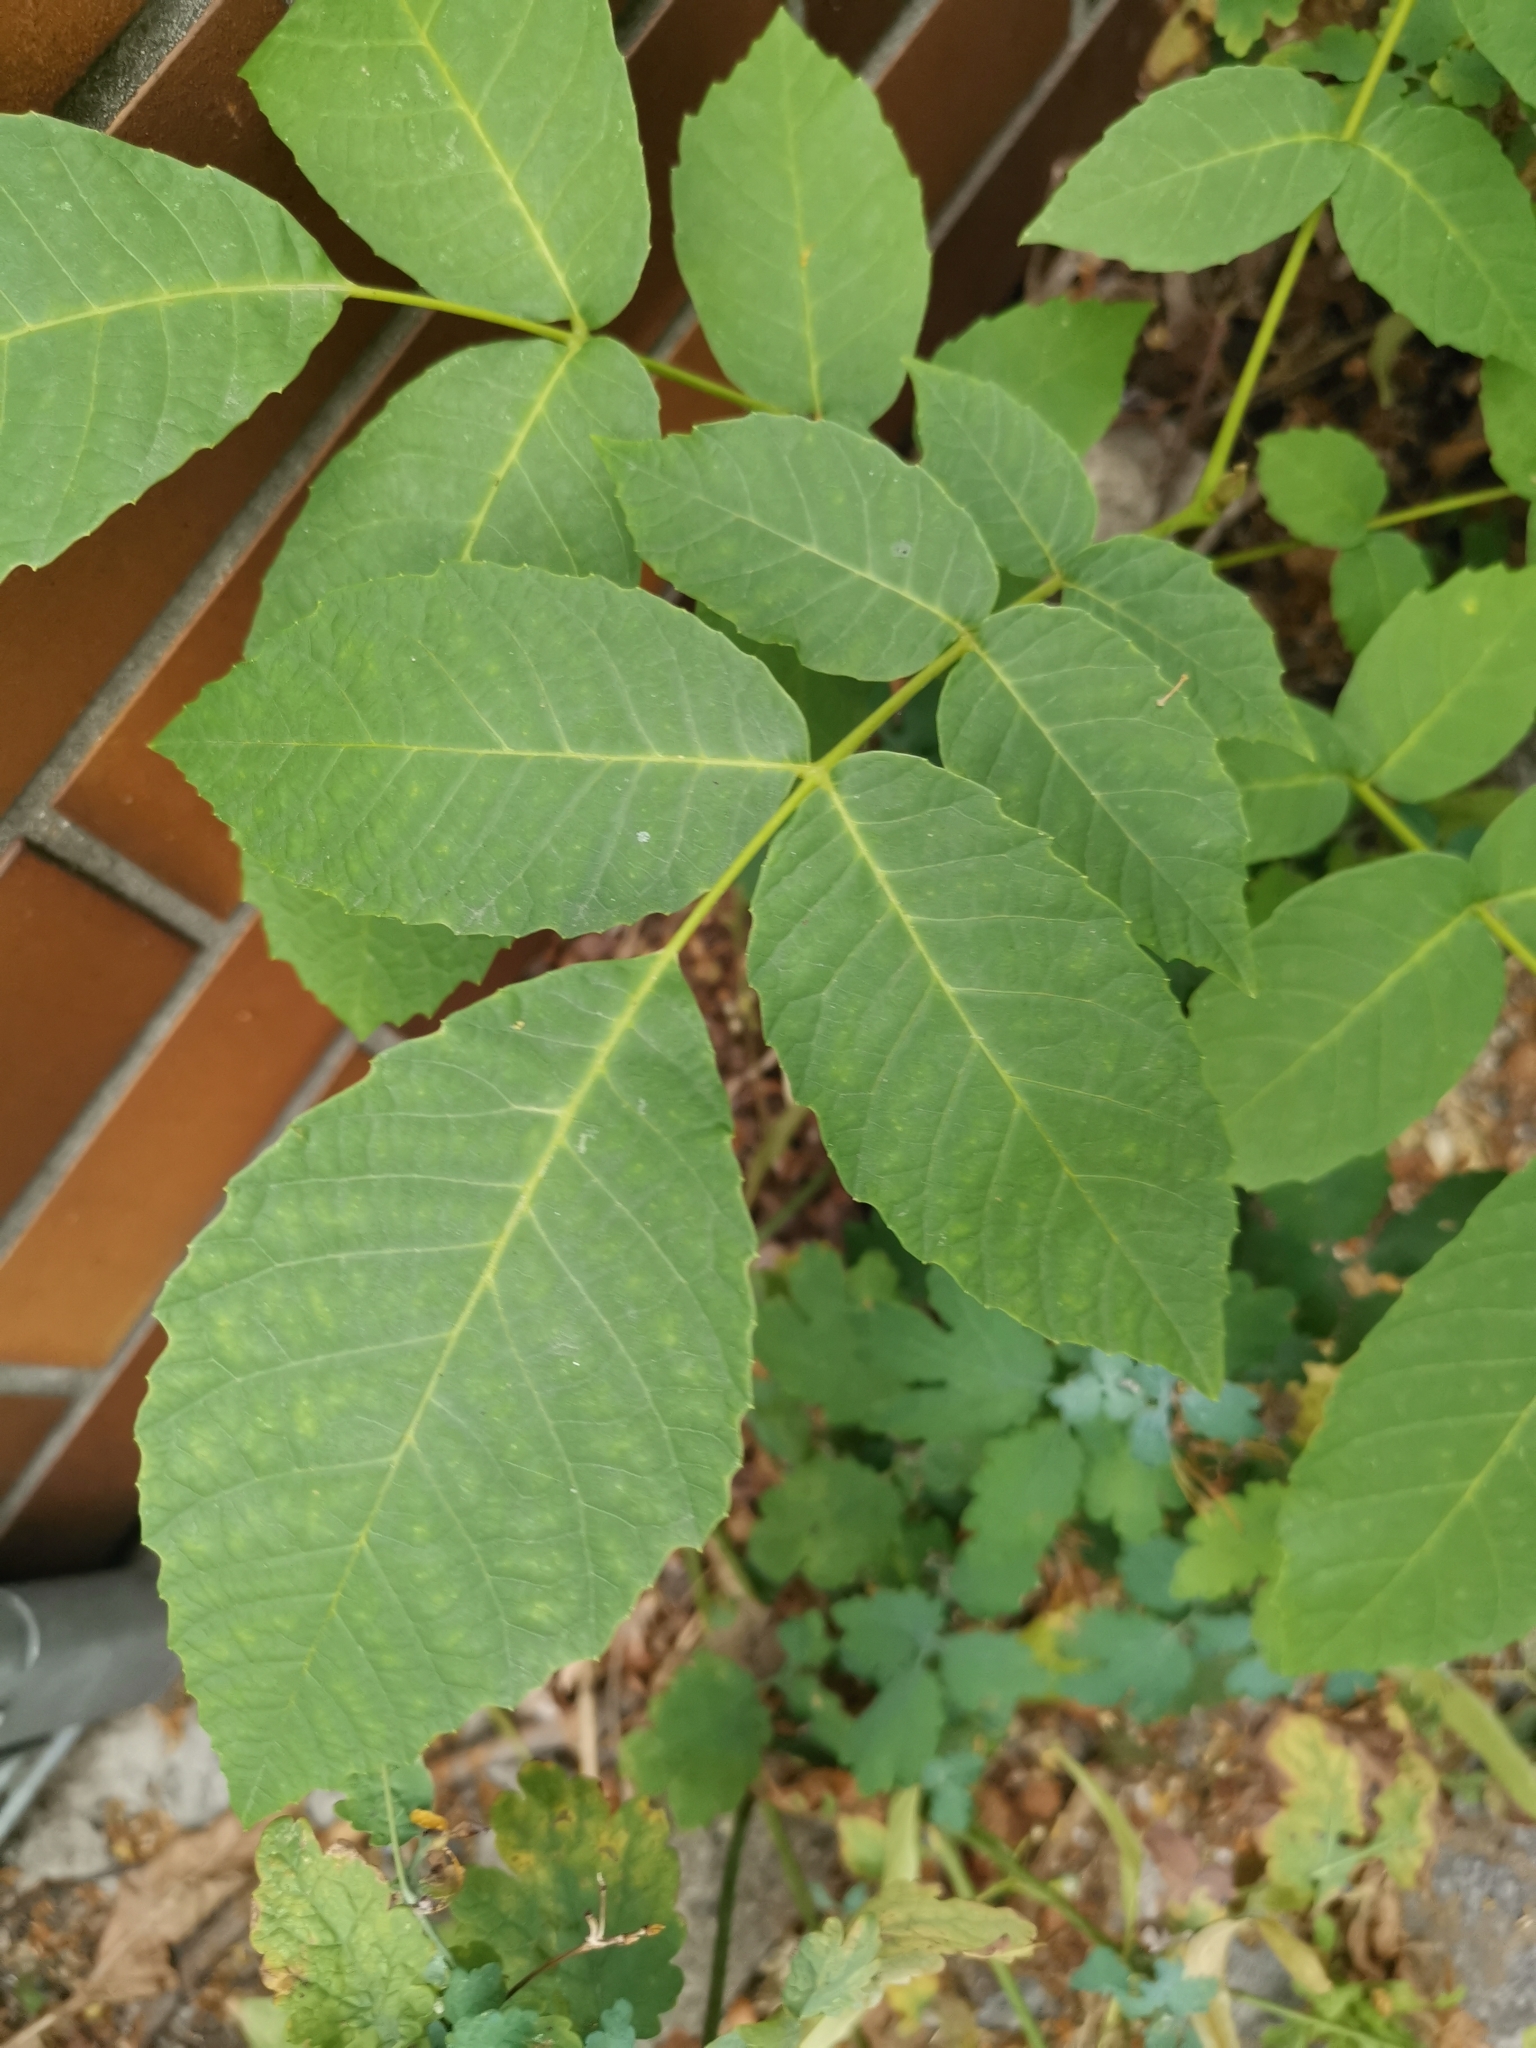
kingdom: Plantae
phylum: Tracheophyta
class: Magnoliopsida
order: Fagales
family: Juglandaceae
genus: Juglans
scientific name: Juglans regia
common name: Walnut
